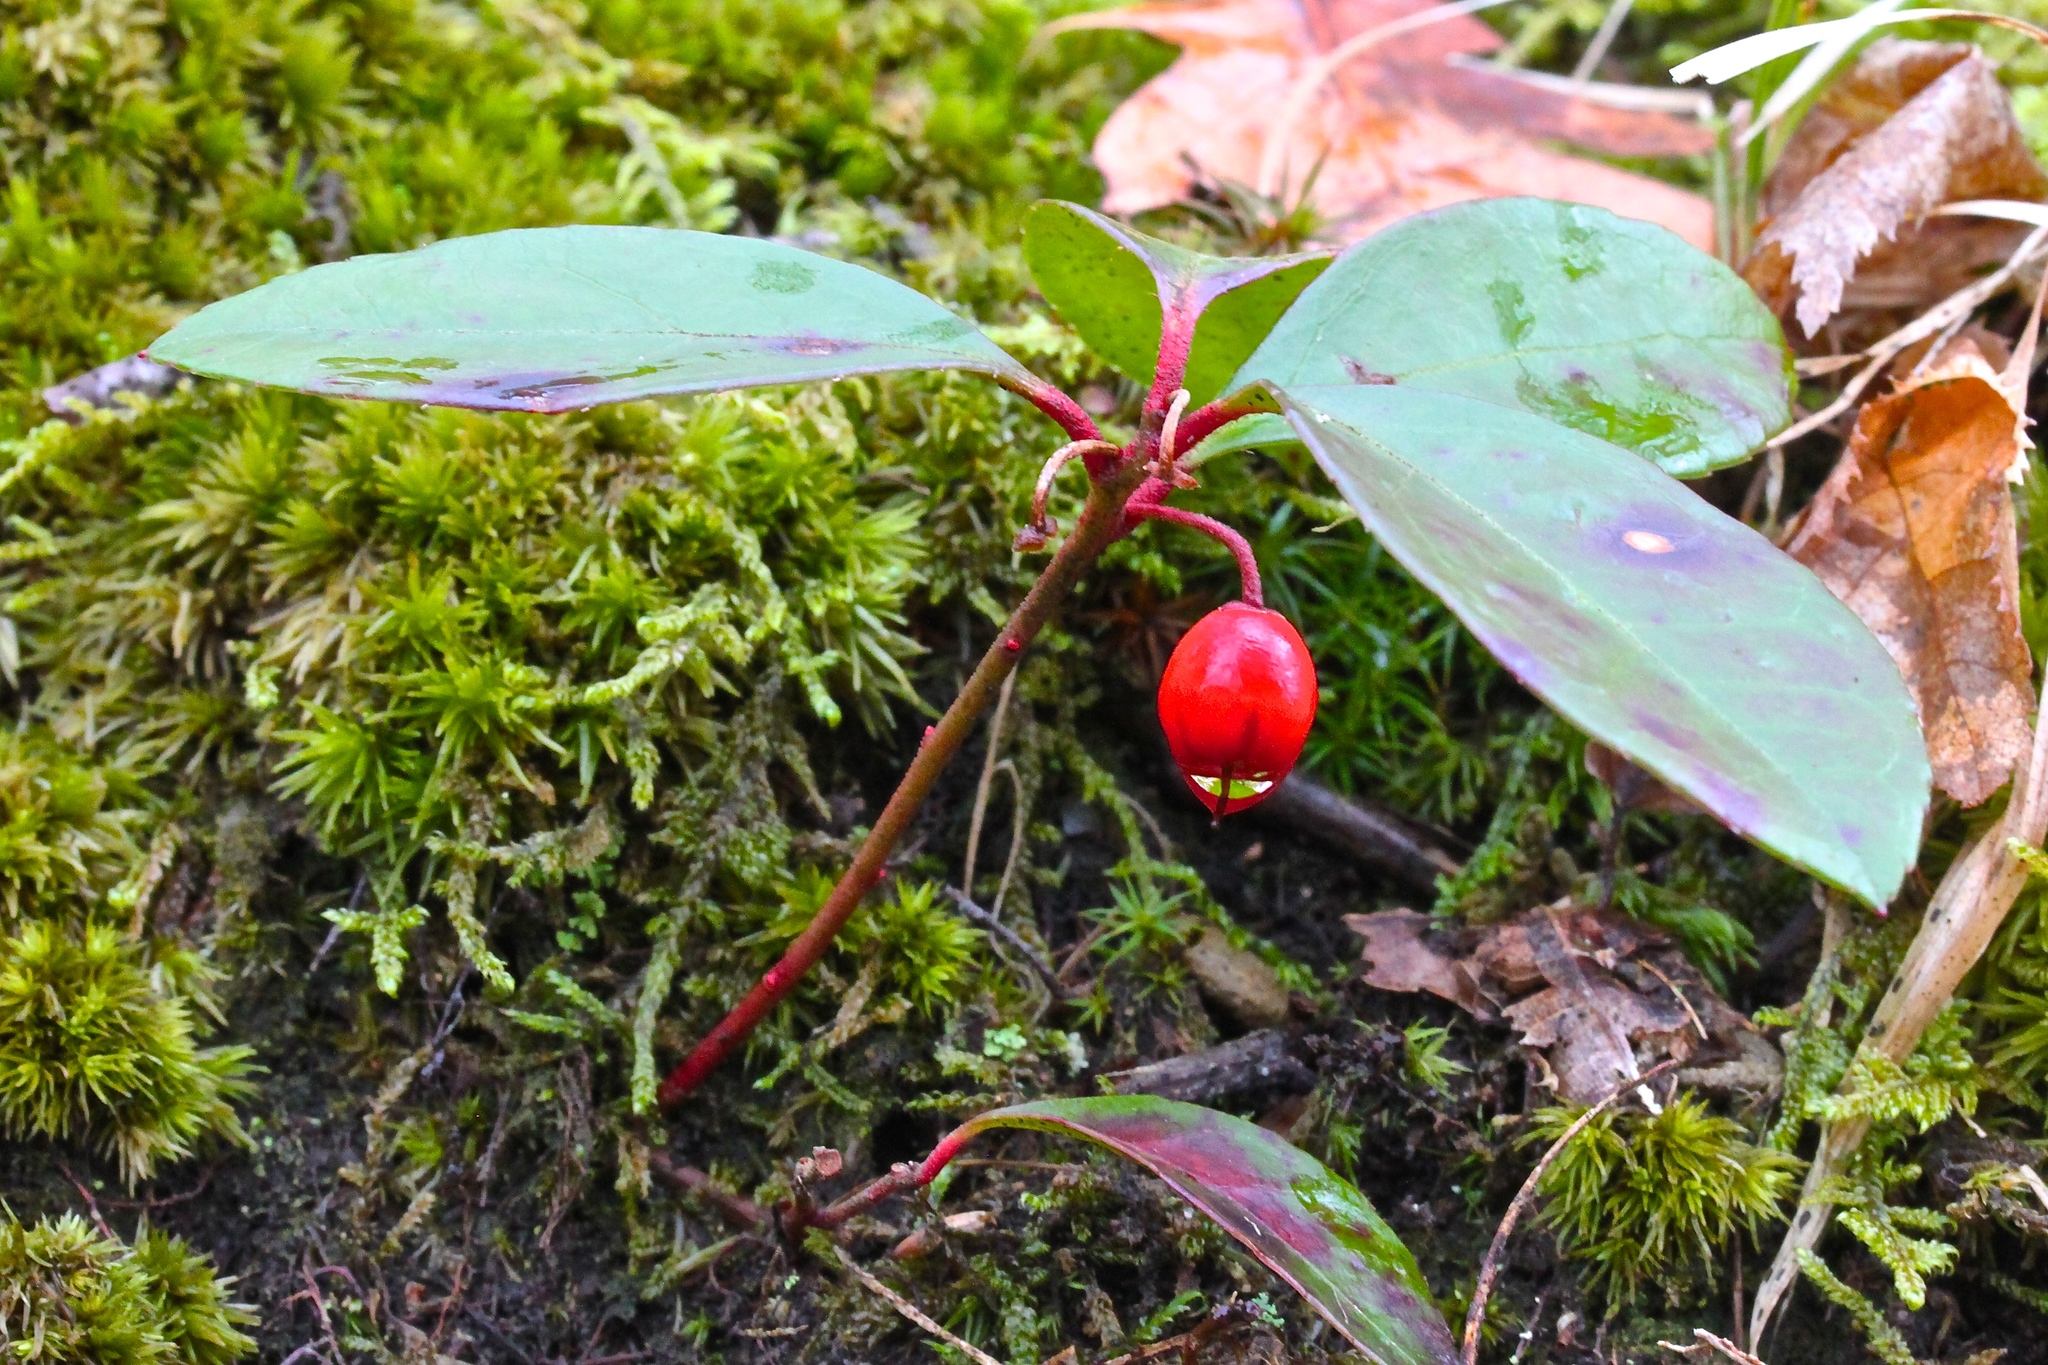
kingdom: Plantae
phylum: Tracheophyta
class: Magnoliopsida
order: Ericales
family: Ericaceae
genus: Gaultheria
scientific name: Gaultheria procumbens
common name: Checkerberry
